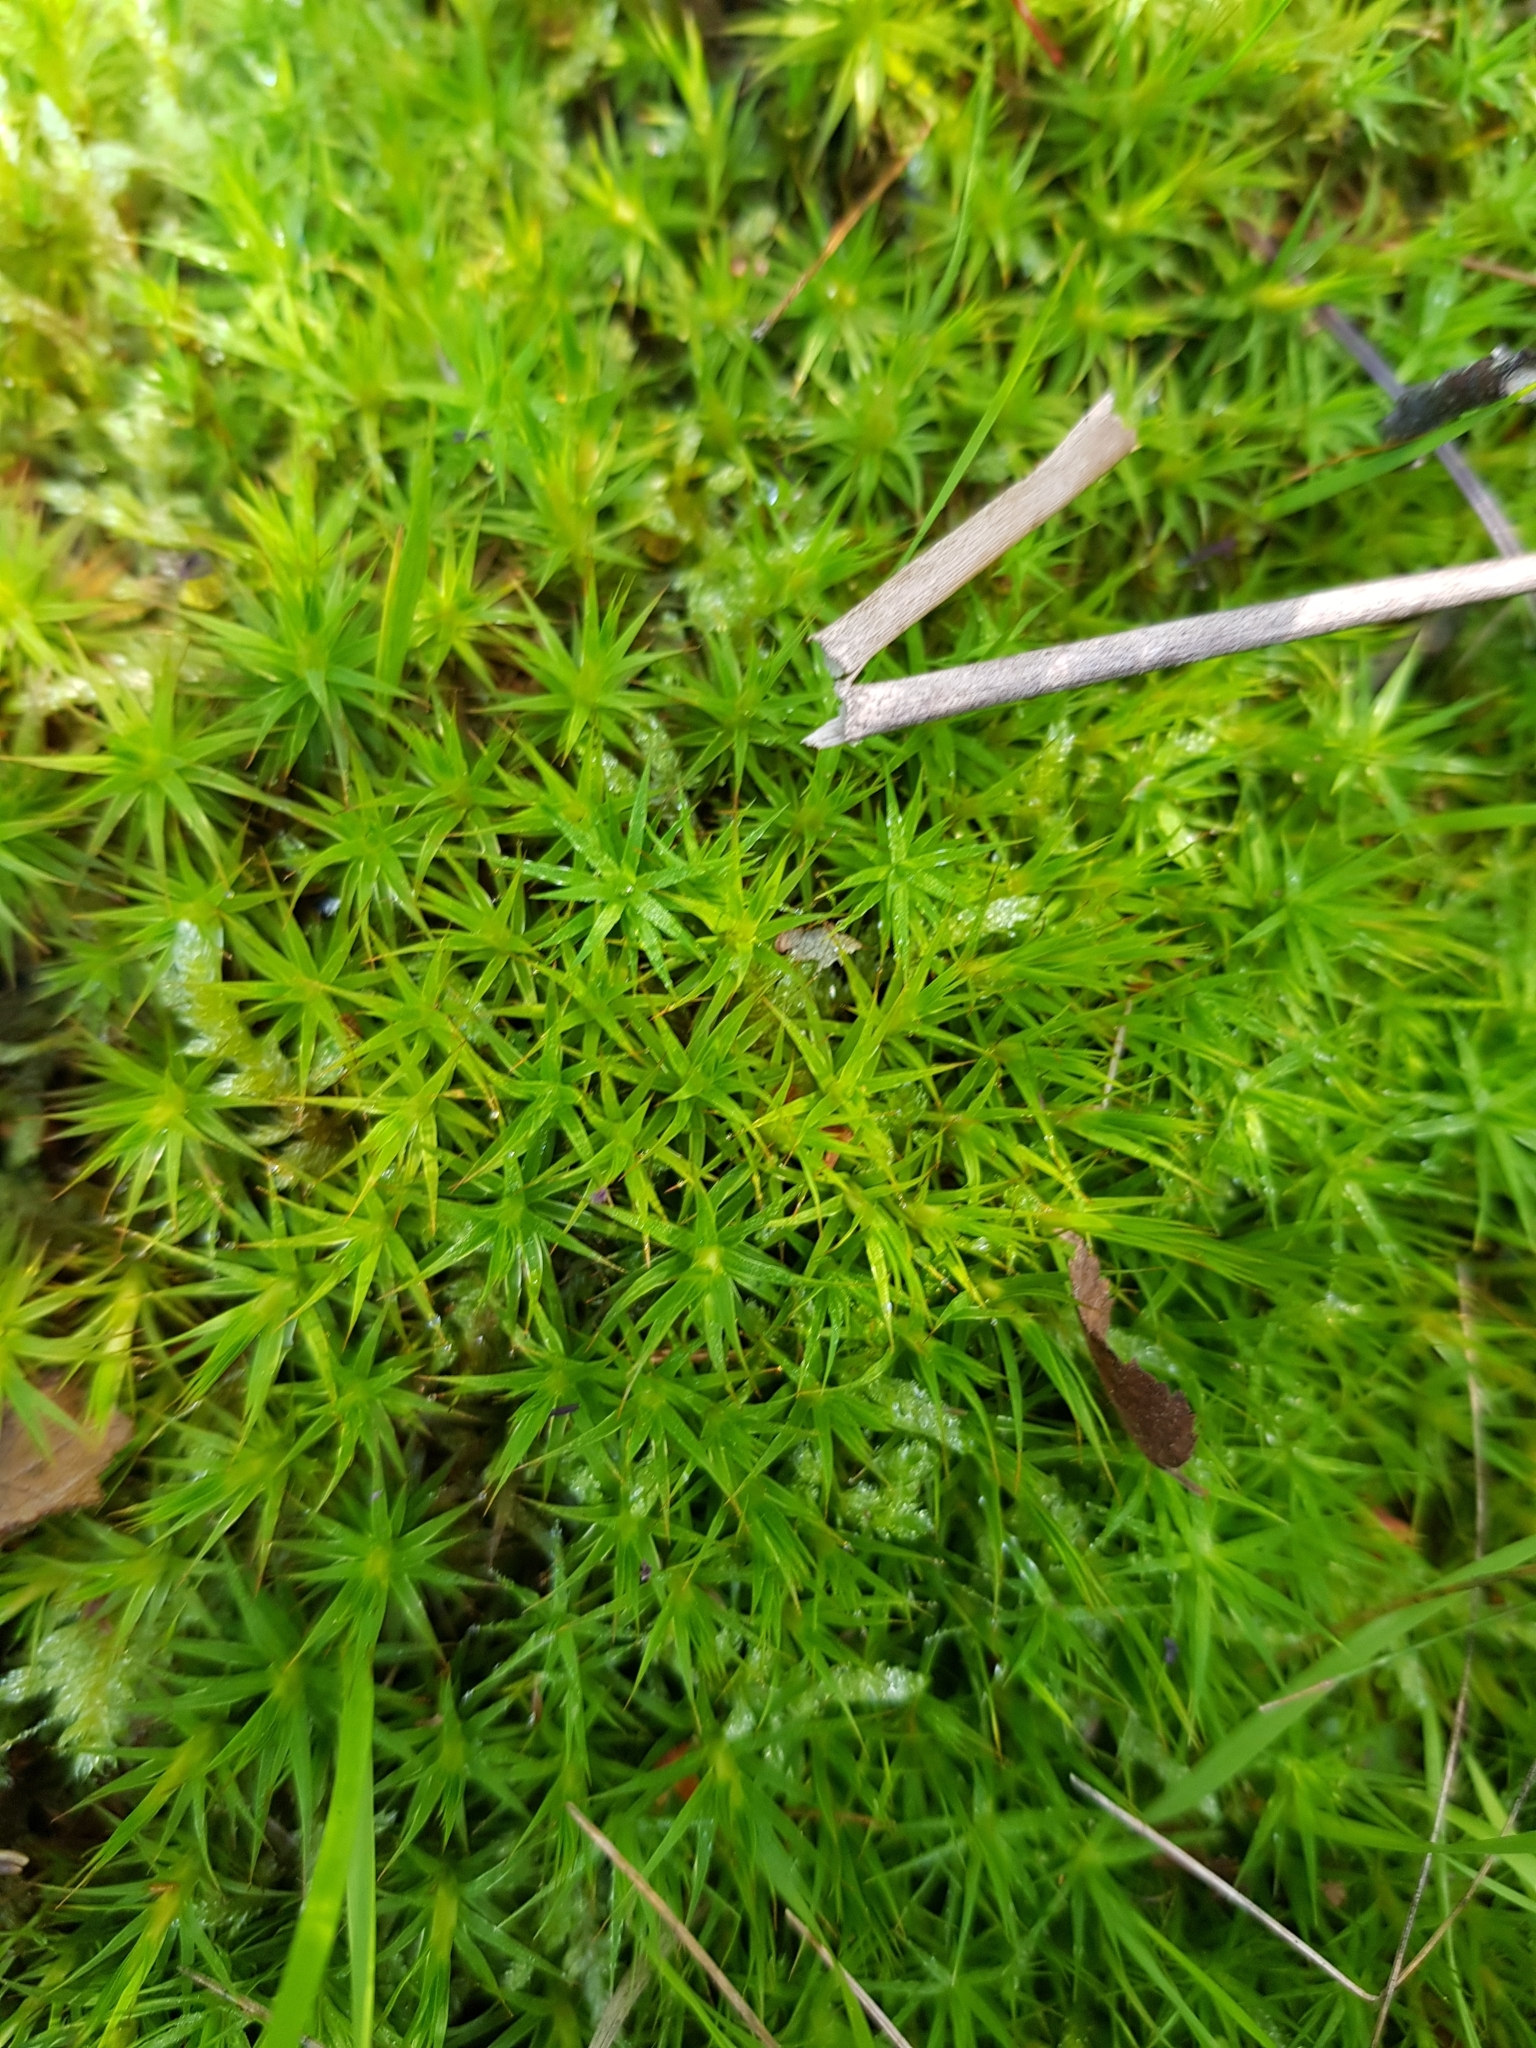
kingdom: Plantae
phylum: Bryophyta
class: Polytrichopsida
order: Polytrichales
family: Polytrichaceae
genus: Polytrichum
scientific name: Polytrichum juniperinum
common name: Juniper haircap moss
